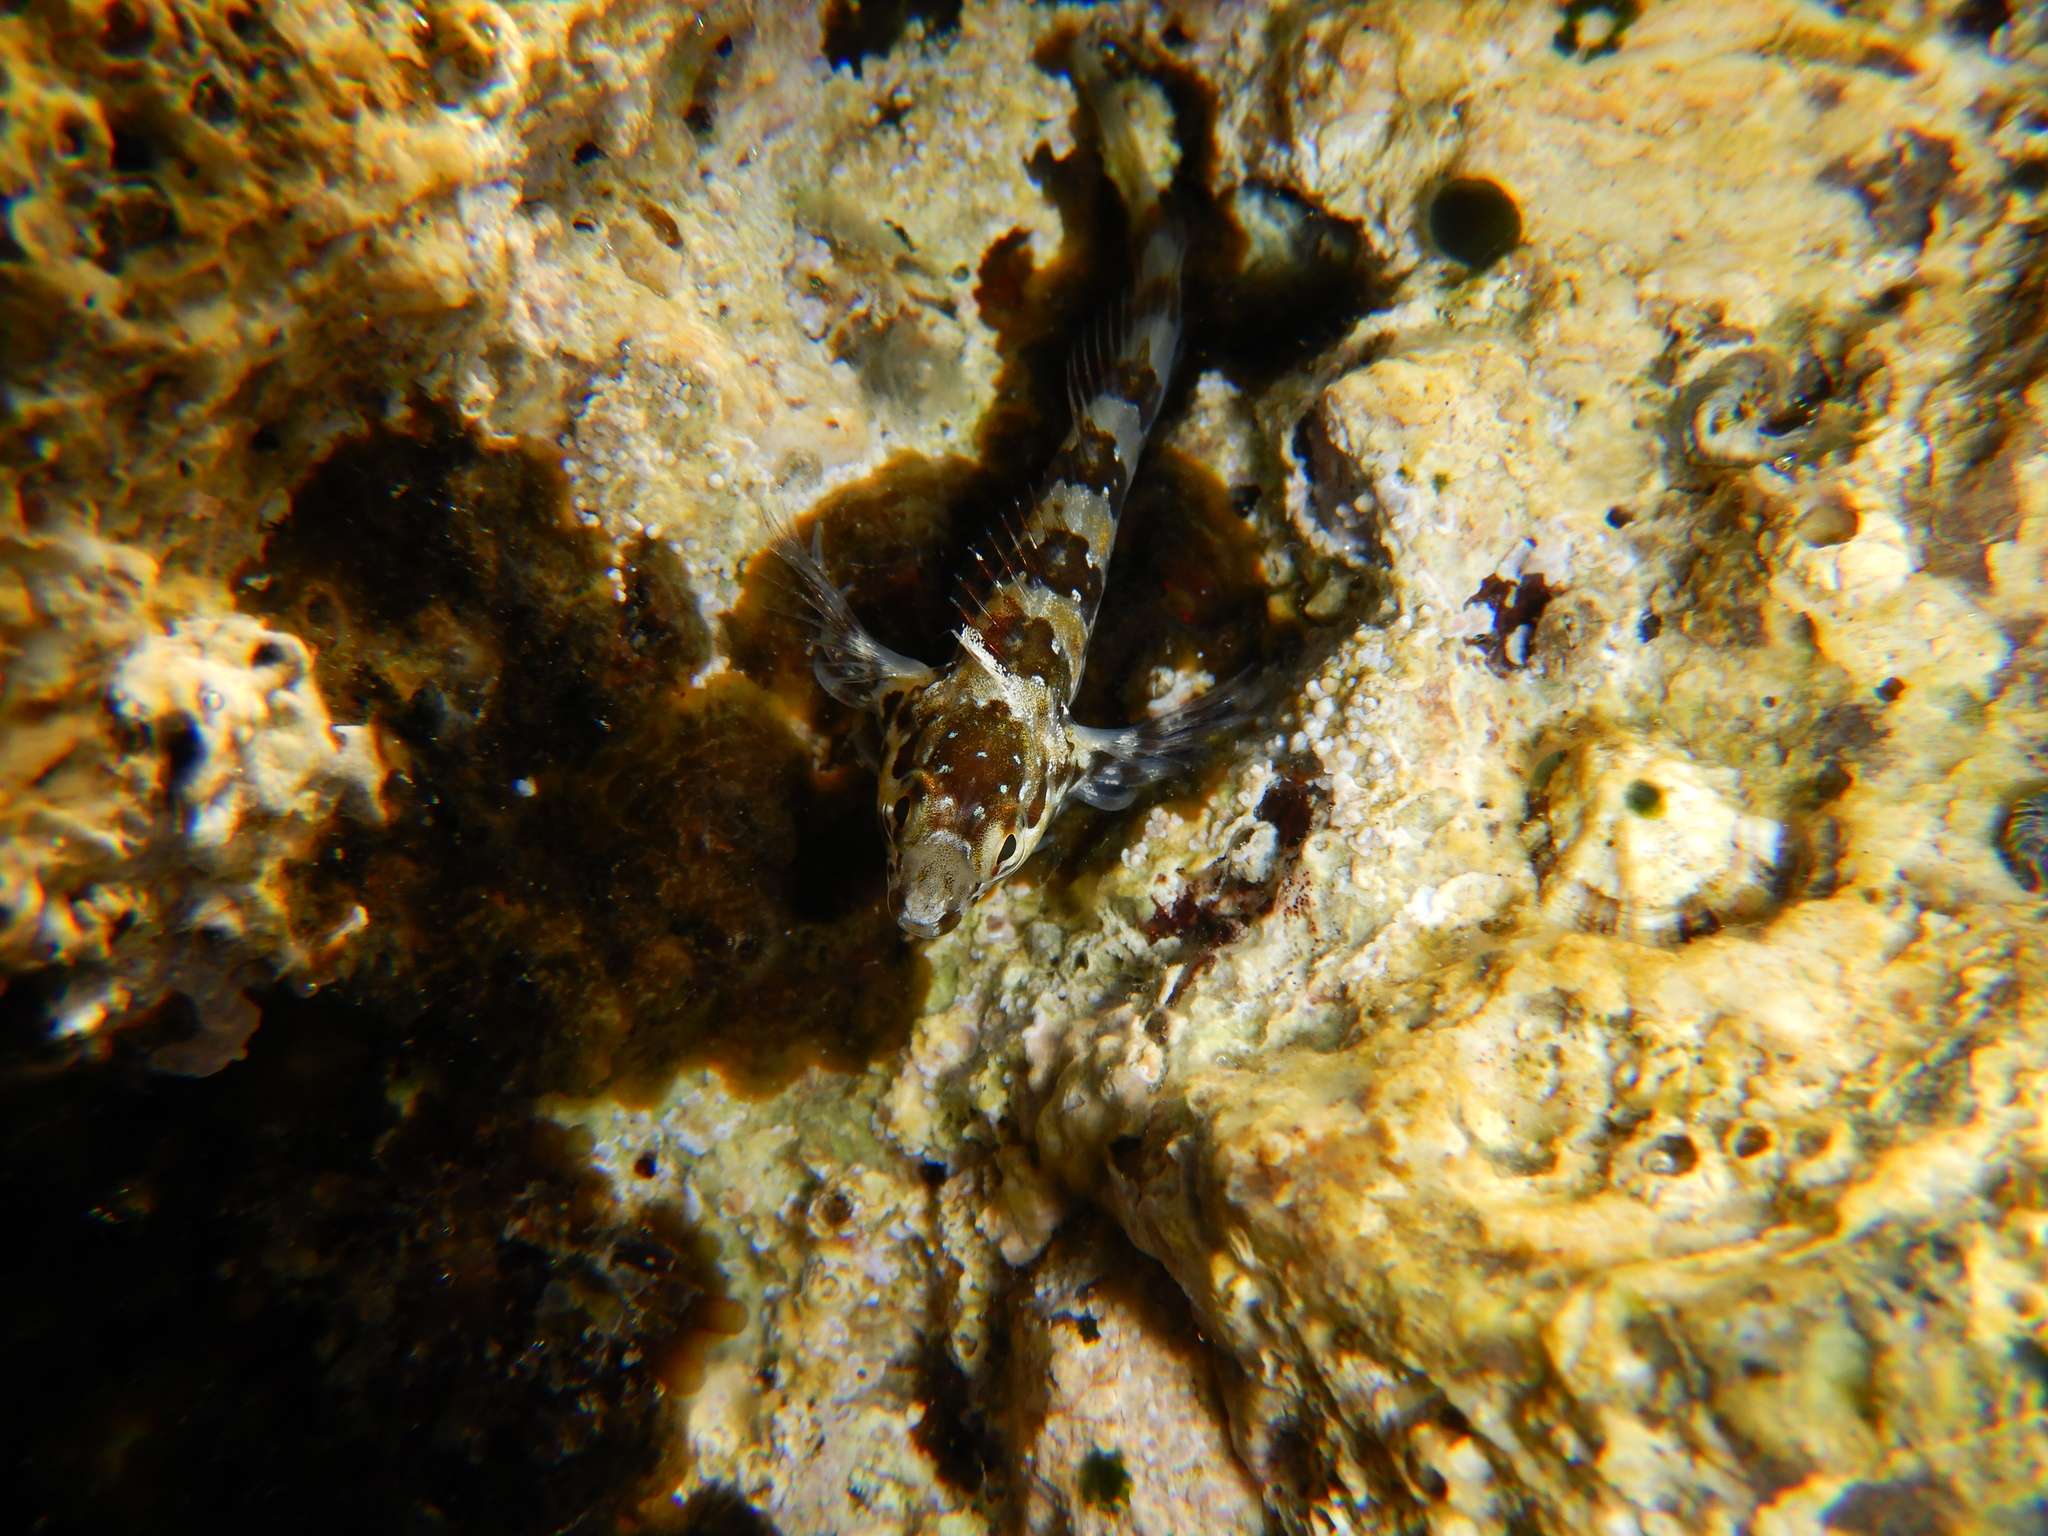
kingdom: Animalia
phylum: Chordata
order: Perciformes
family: Blenniidae
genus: Lipophrys
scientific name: Lipophrys trigloides
